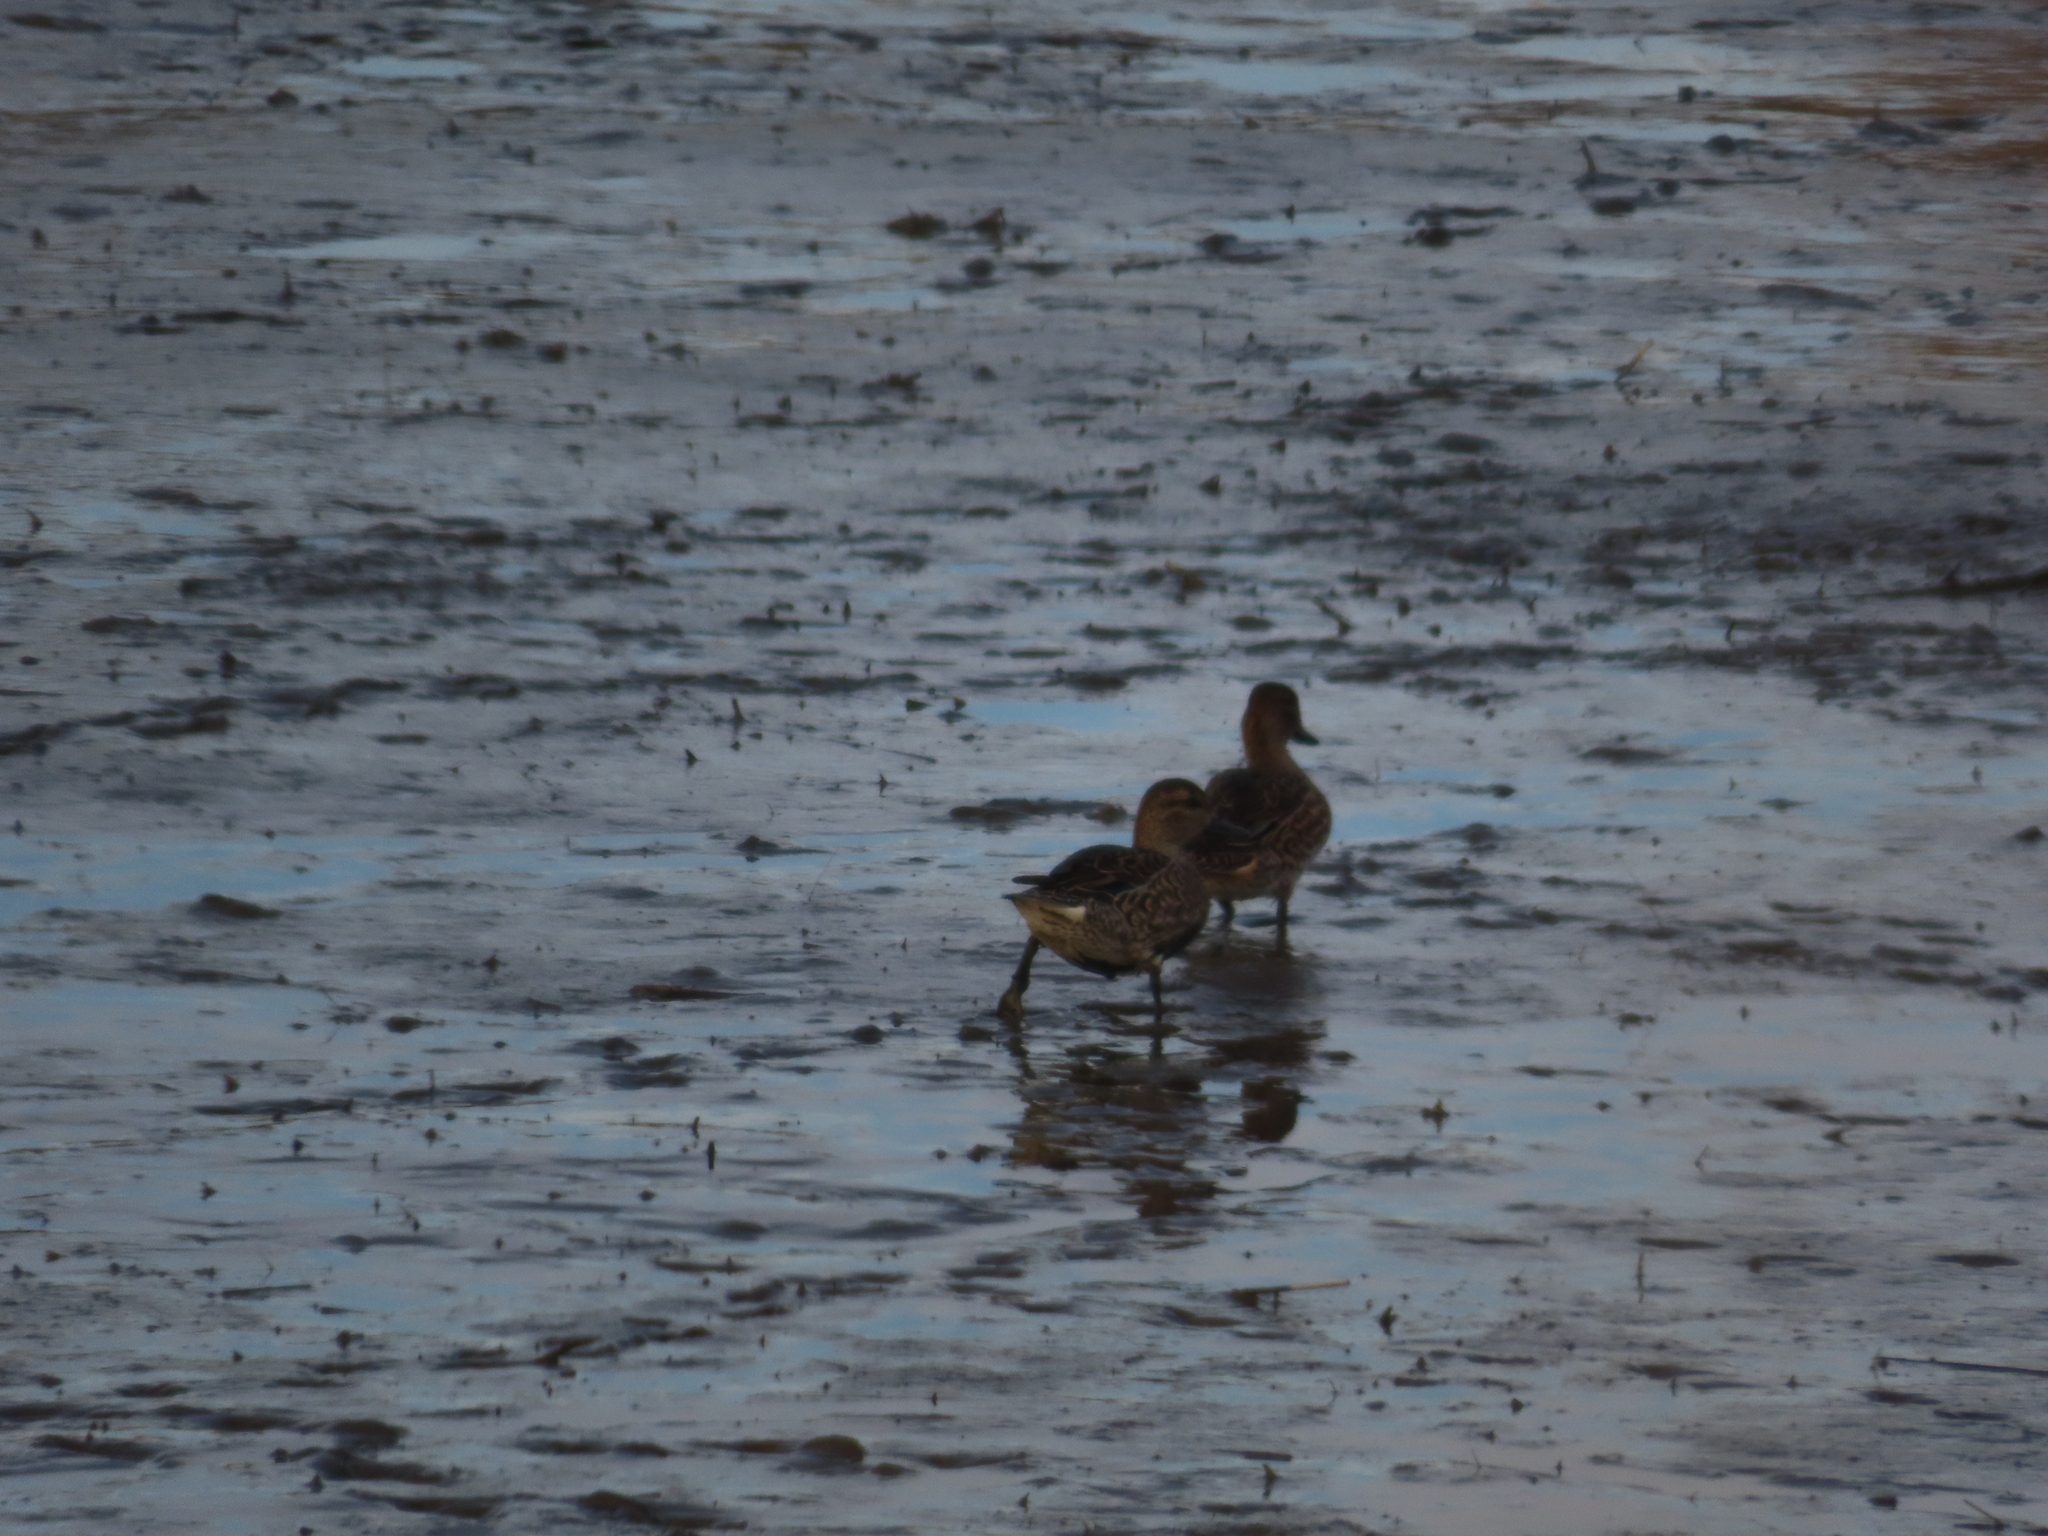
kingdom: Animalia
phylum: Chordata
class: Aves
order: Anseriformes
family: Anatidae
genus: Anas
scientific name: Anas crecca
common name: Eurasian teal
